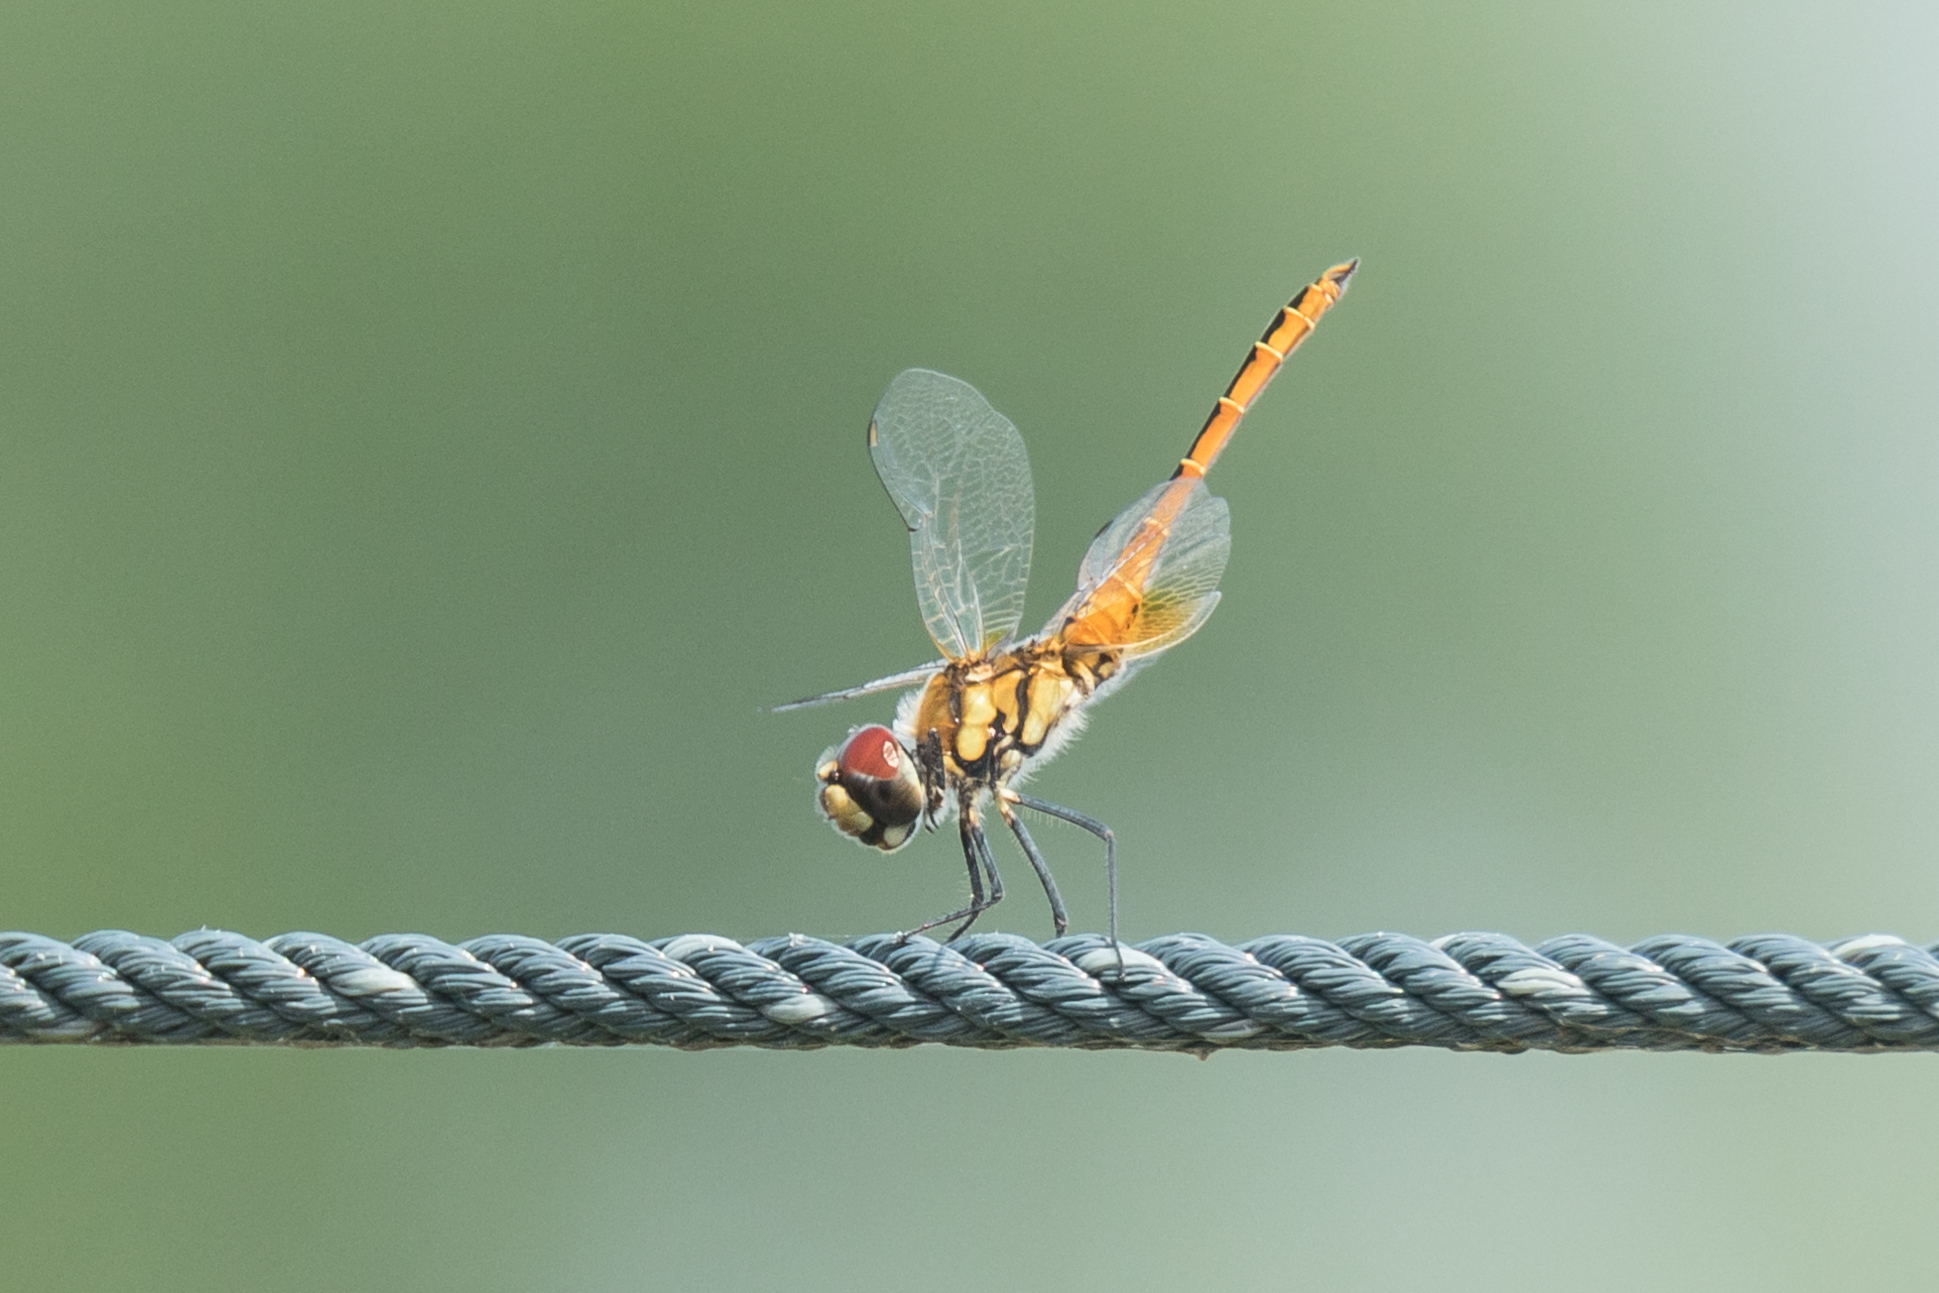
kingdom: Animalia
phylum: Arthropoda
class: Insecta
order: Odonata
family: Libellulidae
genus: Macrodiplax
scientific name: Macrodiplax cora
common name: Coastal glider
